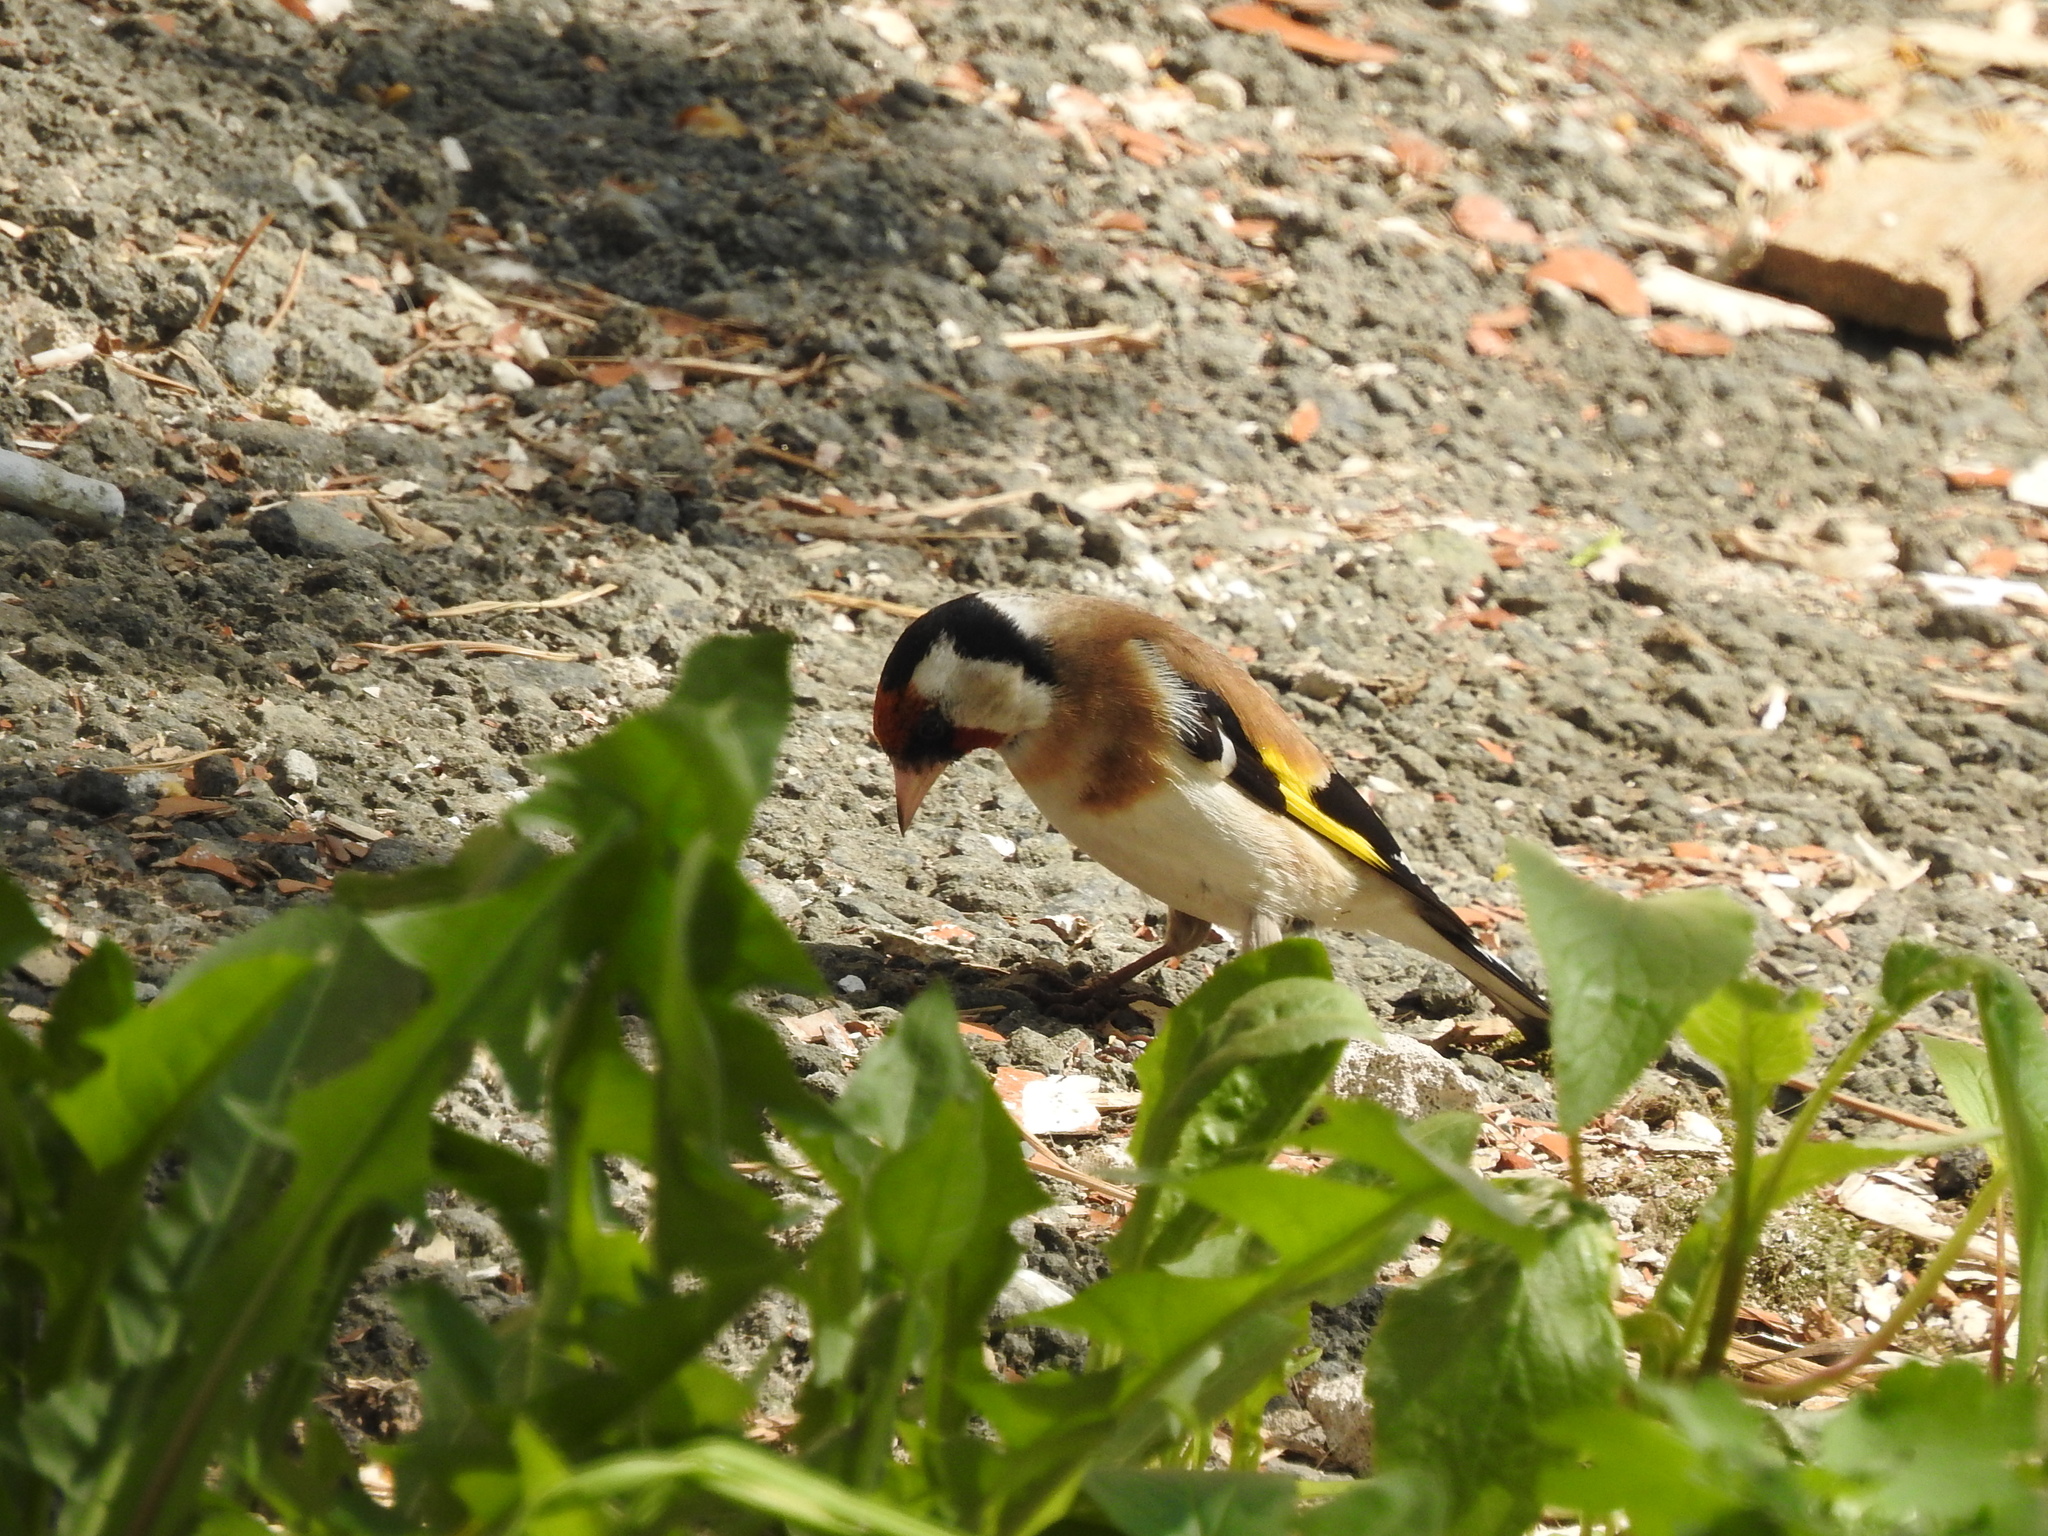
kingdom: Animalia
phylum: Chordata
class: Aves
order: Passeriformes
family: Fringillidae
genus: Carduelis
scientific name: Carduelis carduelis
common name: European goldfinch
